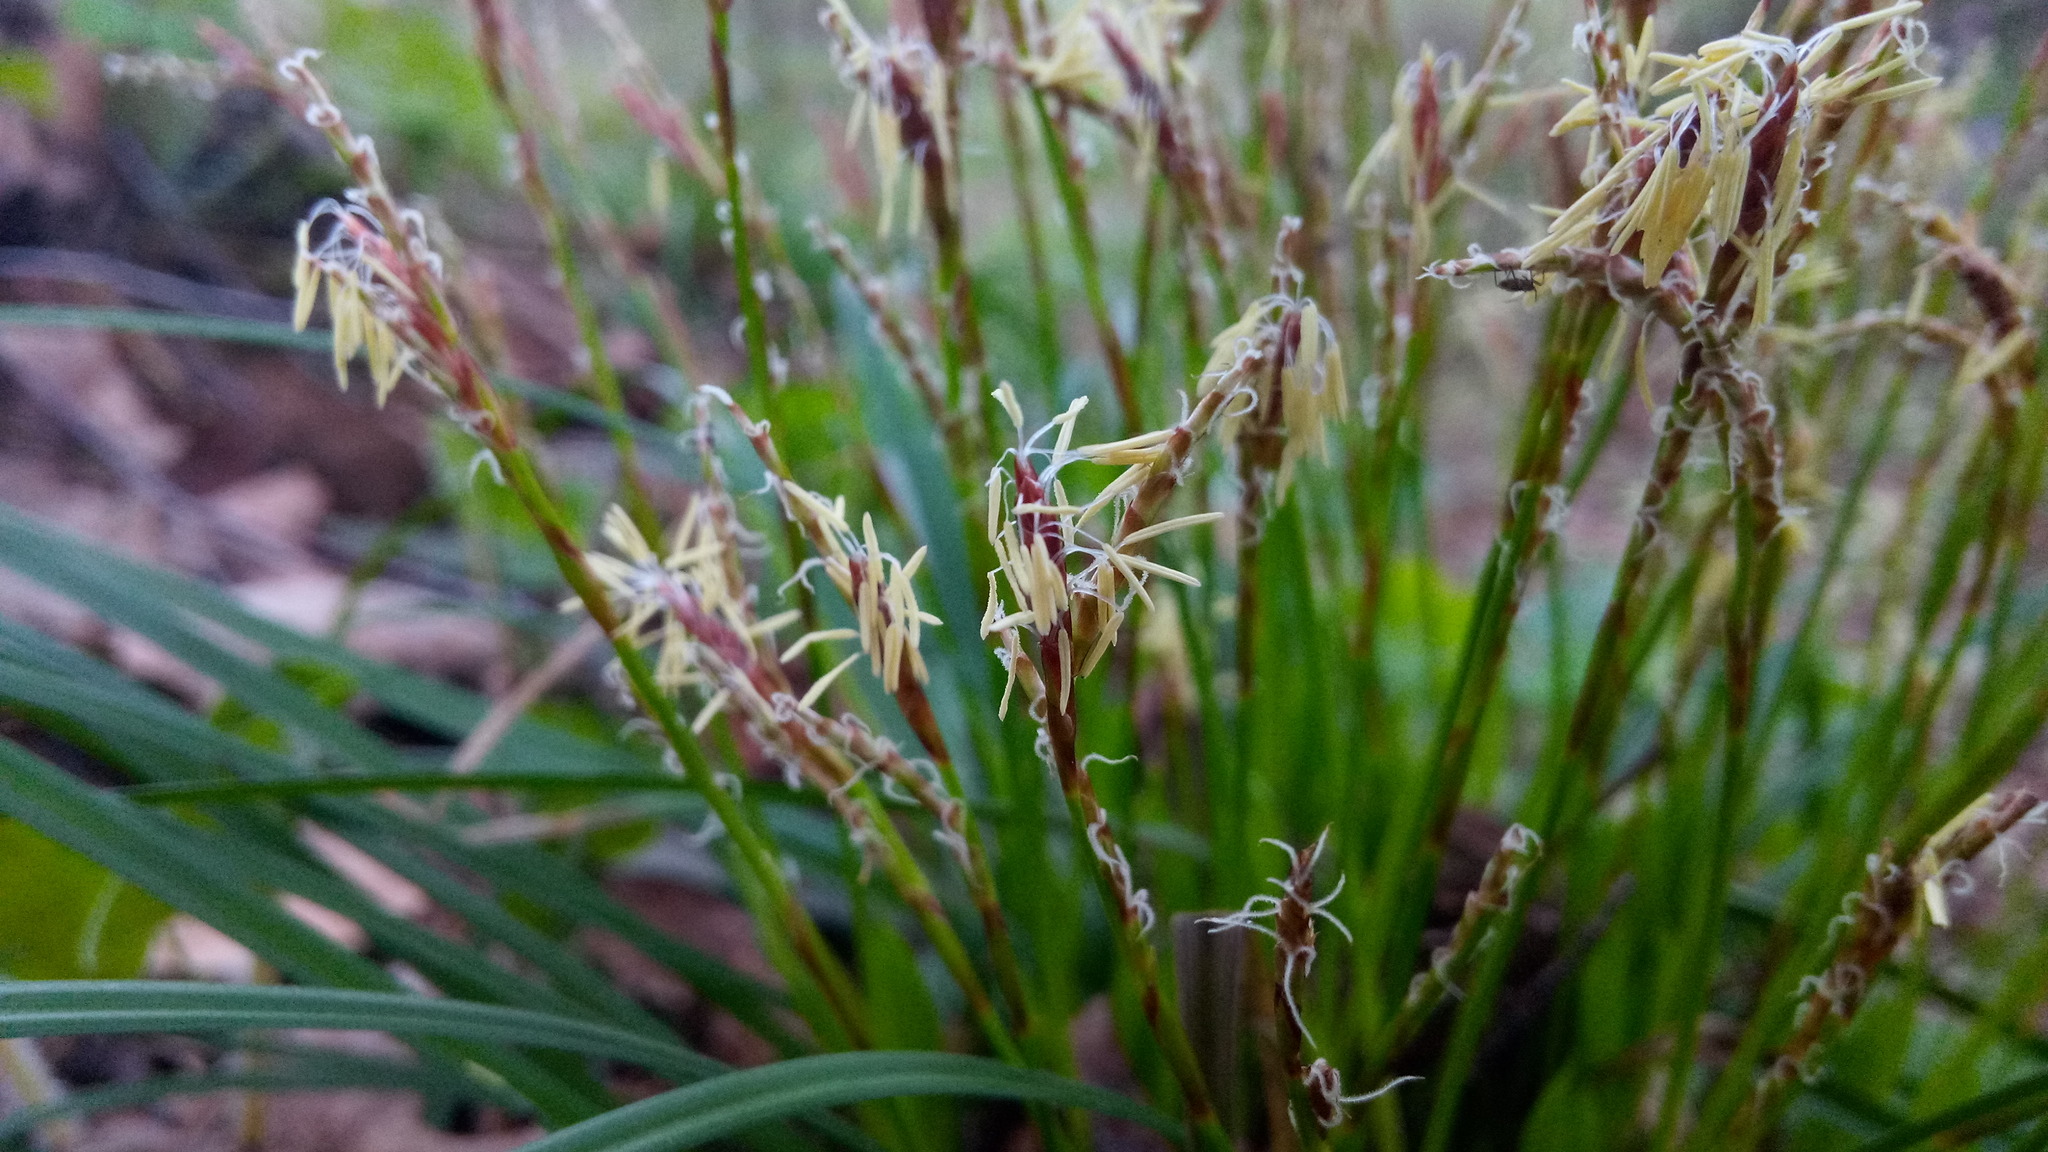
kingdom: Plantae
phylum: Tracheophyta
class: Liliopsida
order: Poales
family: Cyperaceae
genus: Carex
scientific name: Carex digitata
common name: Fingered sedge
